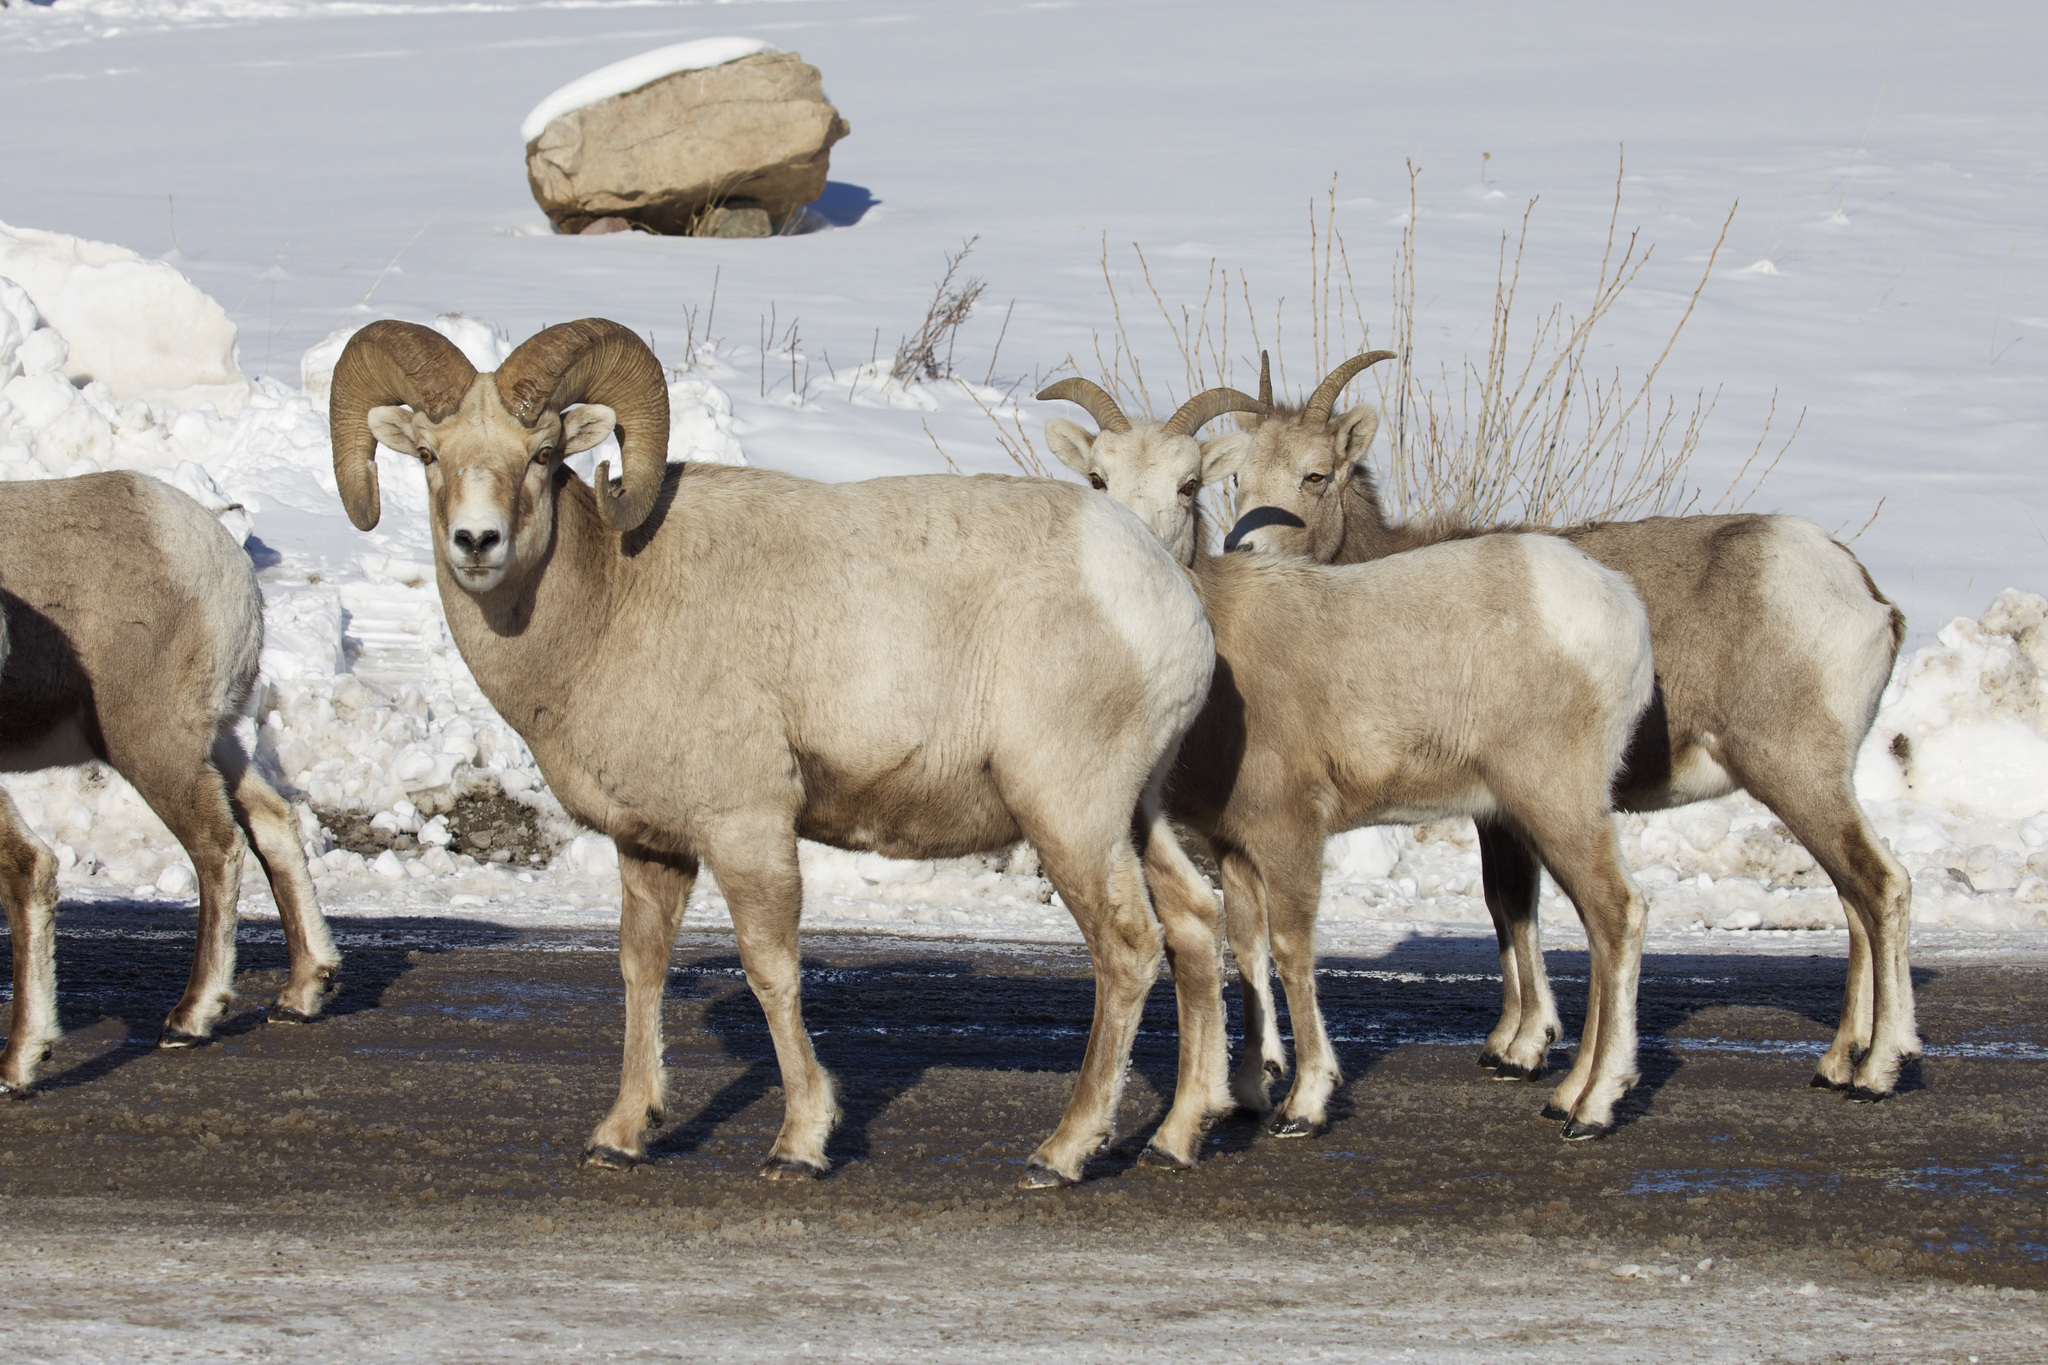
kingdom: Animalia
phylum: Chordata
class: Mammalia
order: Artiodactyla
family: Bovidae
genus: Ovis
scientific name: Ovis canadensis
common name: Bighorn sheep
